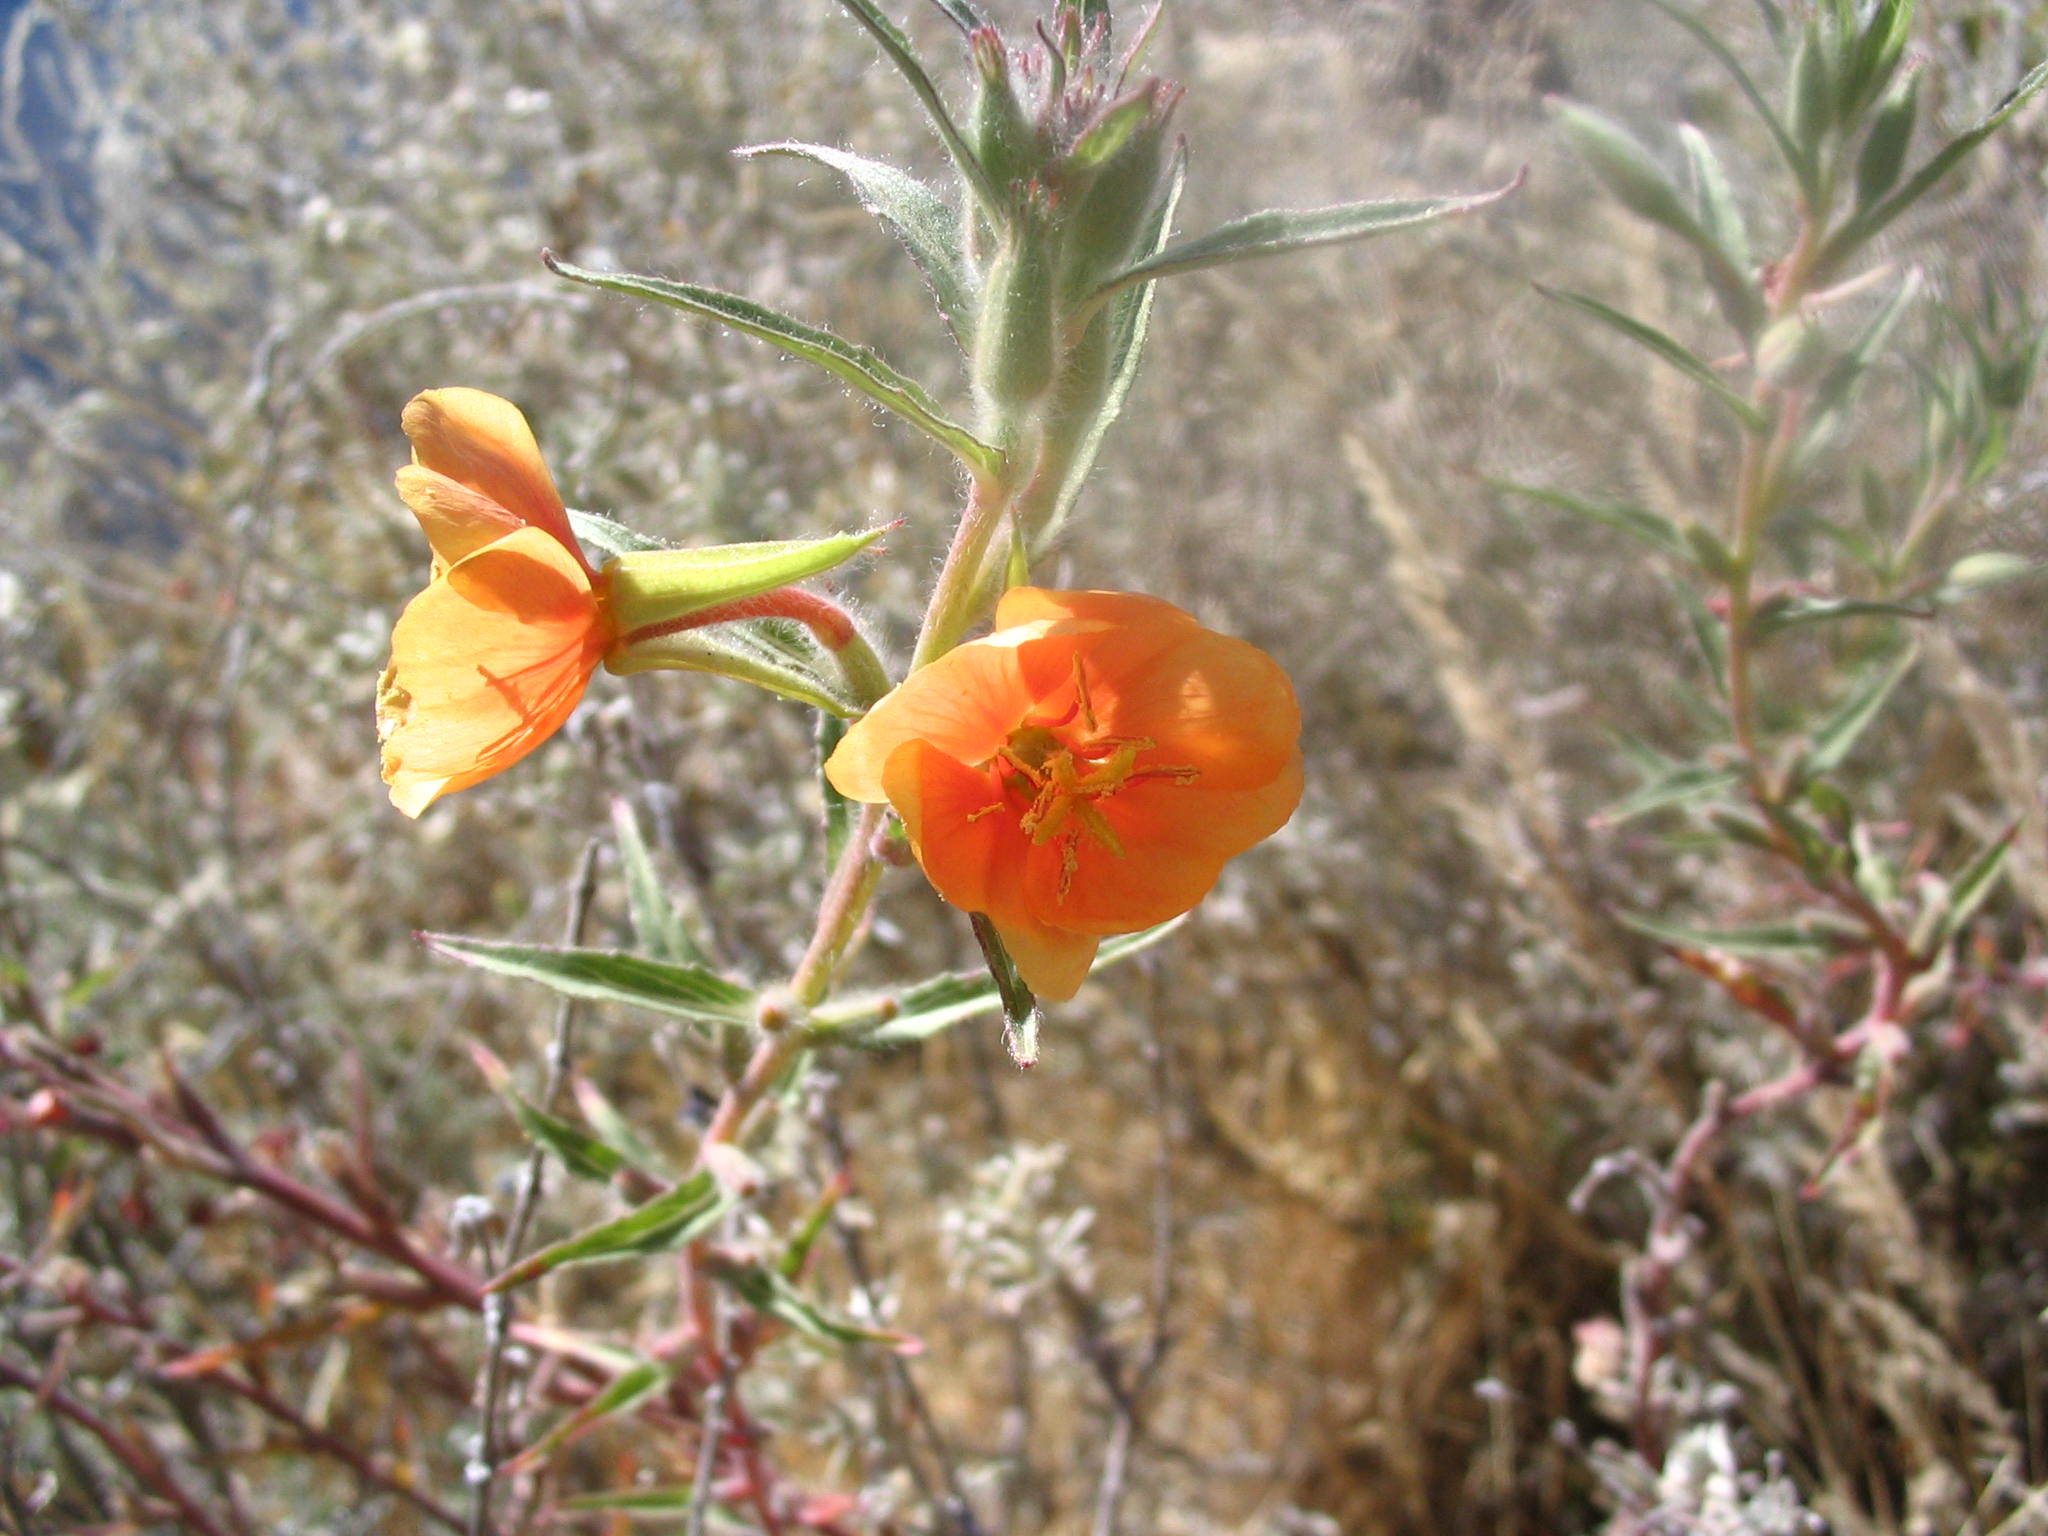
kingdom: Plantae
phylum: Tracheophyta
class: Magnoliopsida
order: Myrtales
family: Onagraceae
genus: Oenothera
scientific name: Oenothera versicolor
